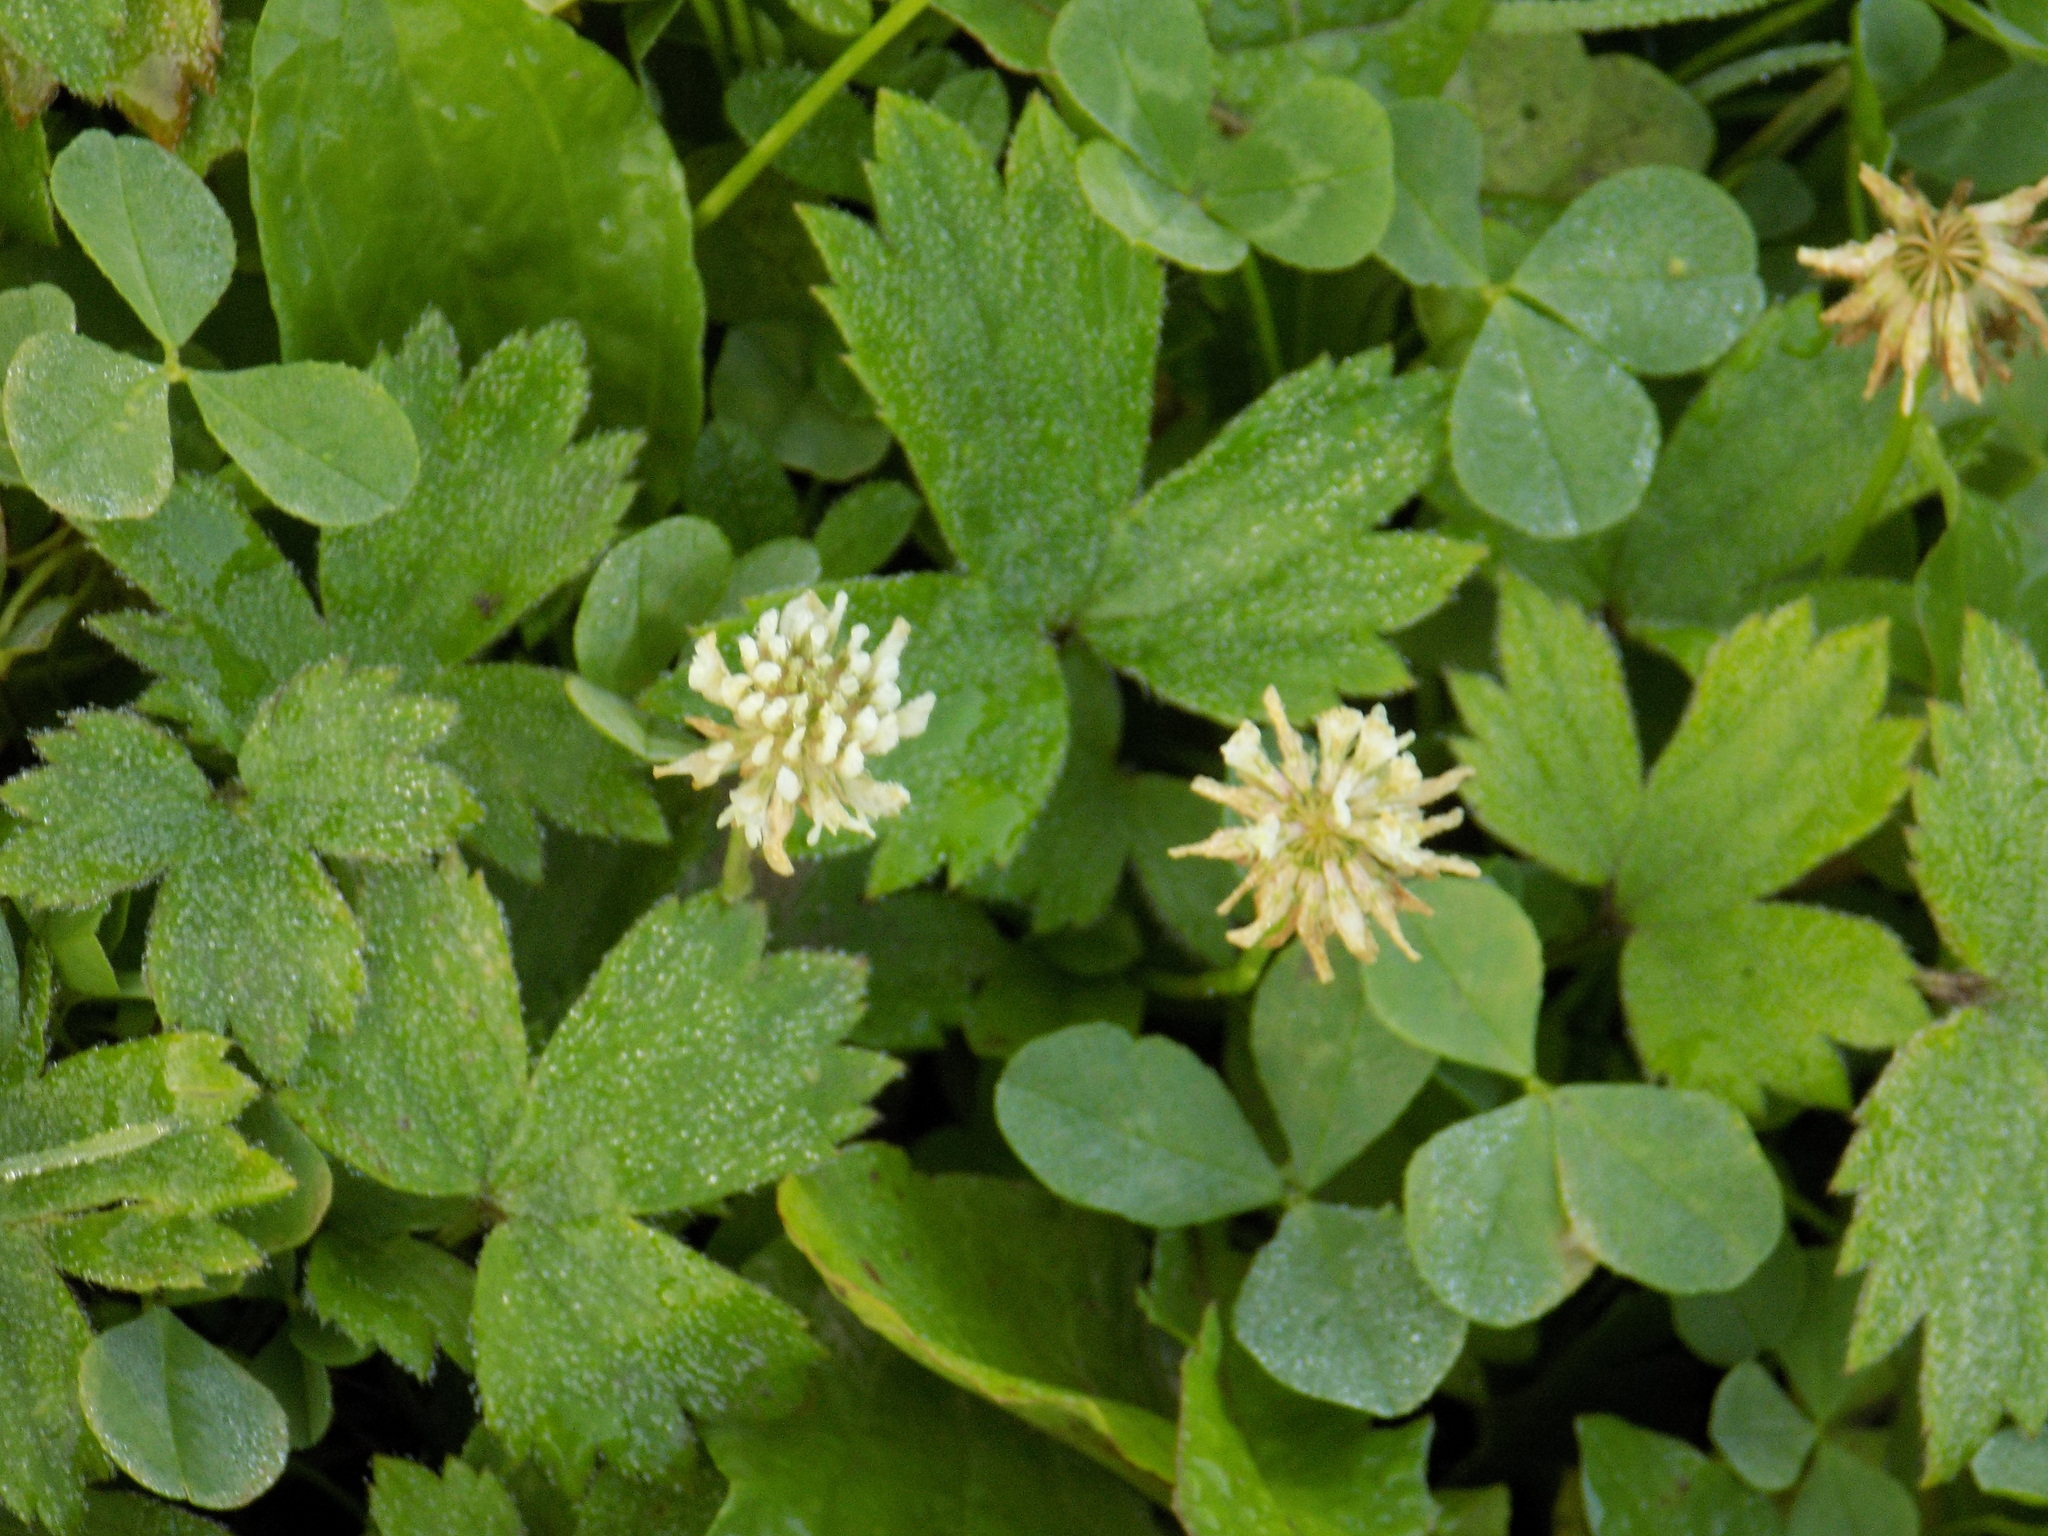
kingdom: Plantae
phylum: Tracheophyta
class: Magnoliopsida
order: Fabales
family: Fabaceae
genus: Trifolium
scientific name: Trifolium repens
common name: White clover
